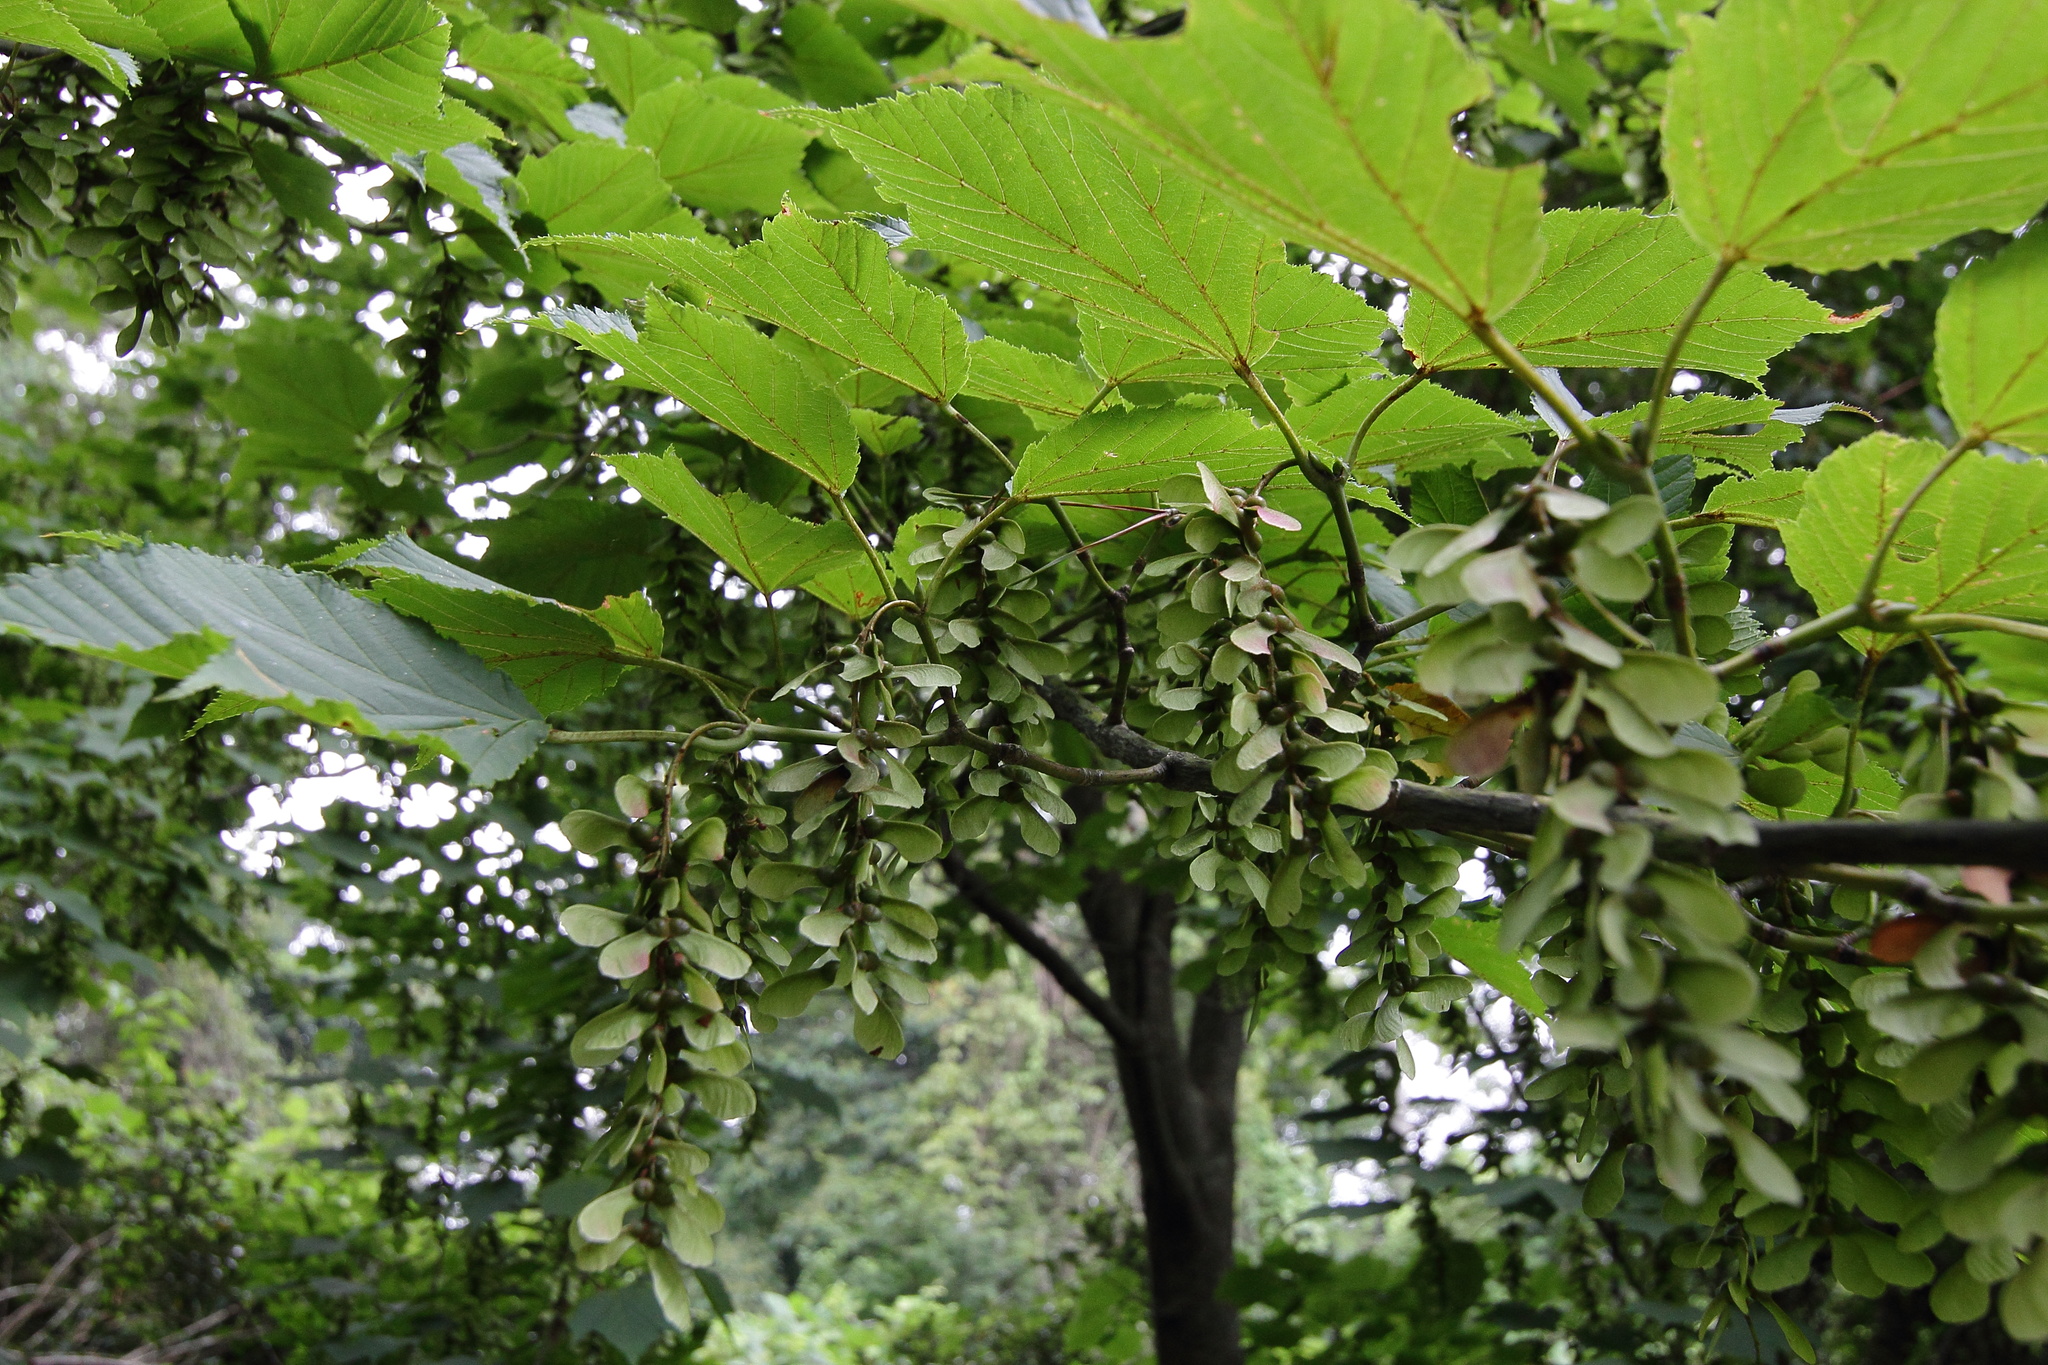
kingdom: Plantae
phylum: Tracheophyta
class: Magnoliopsida
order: Sapindales
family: Sapindaceae
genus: Acer
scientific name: Acer rufinerve
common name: Red veined maple
